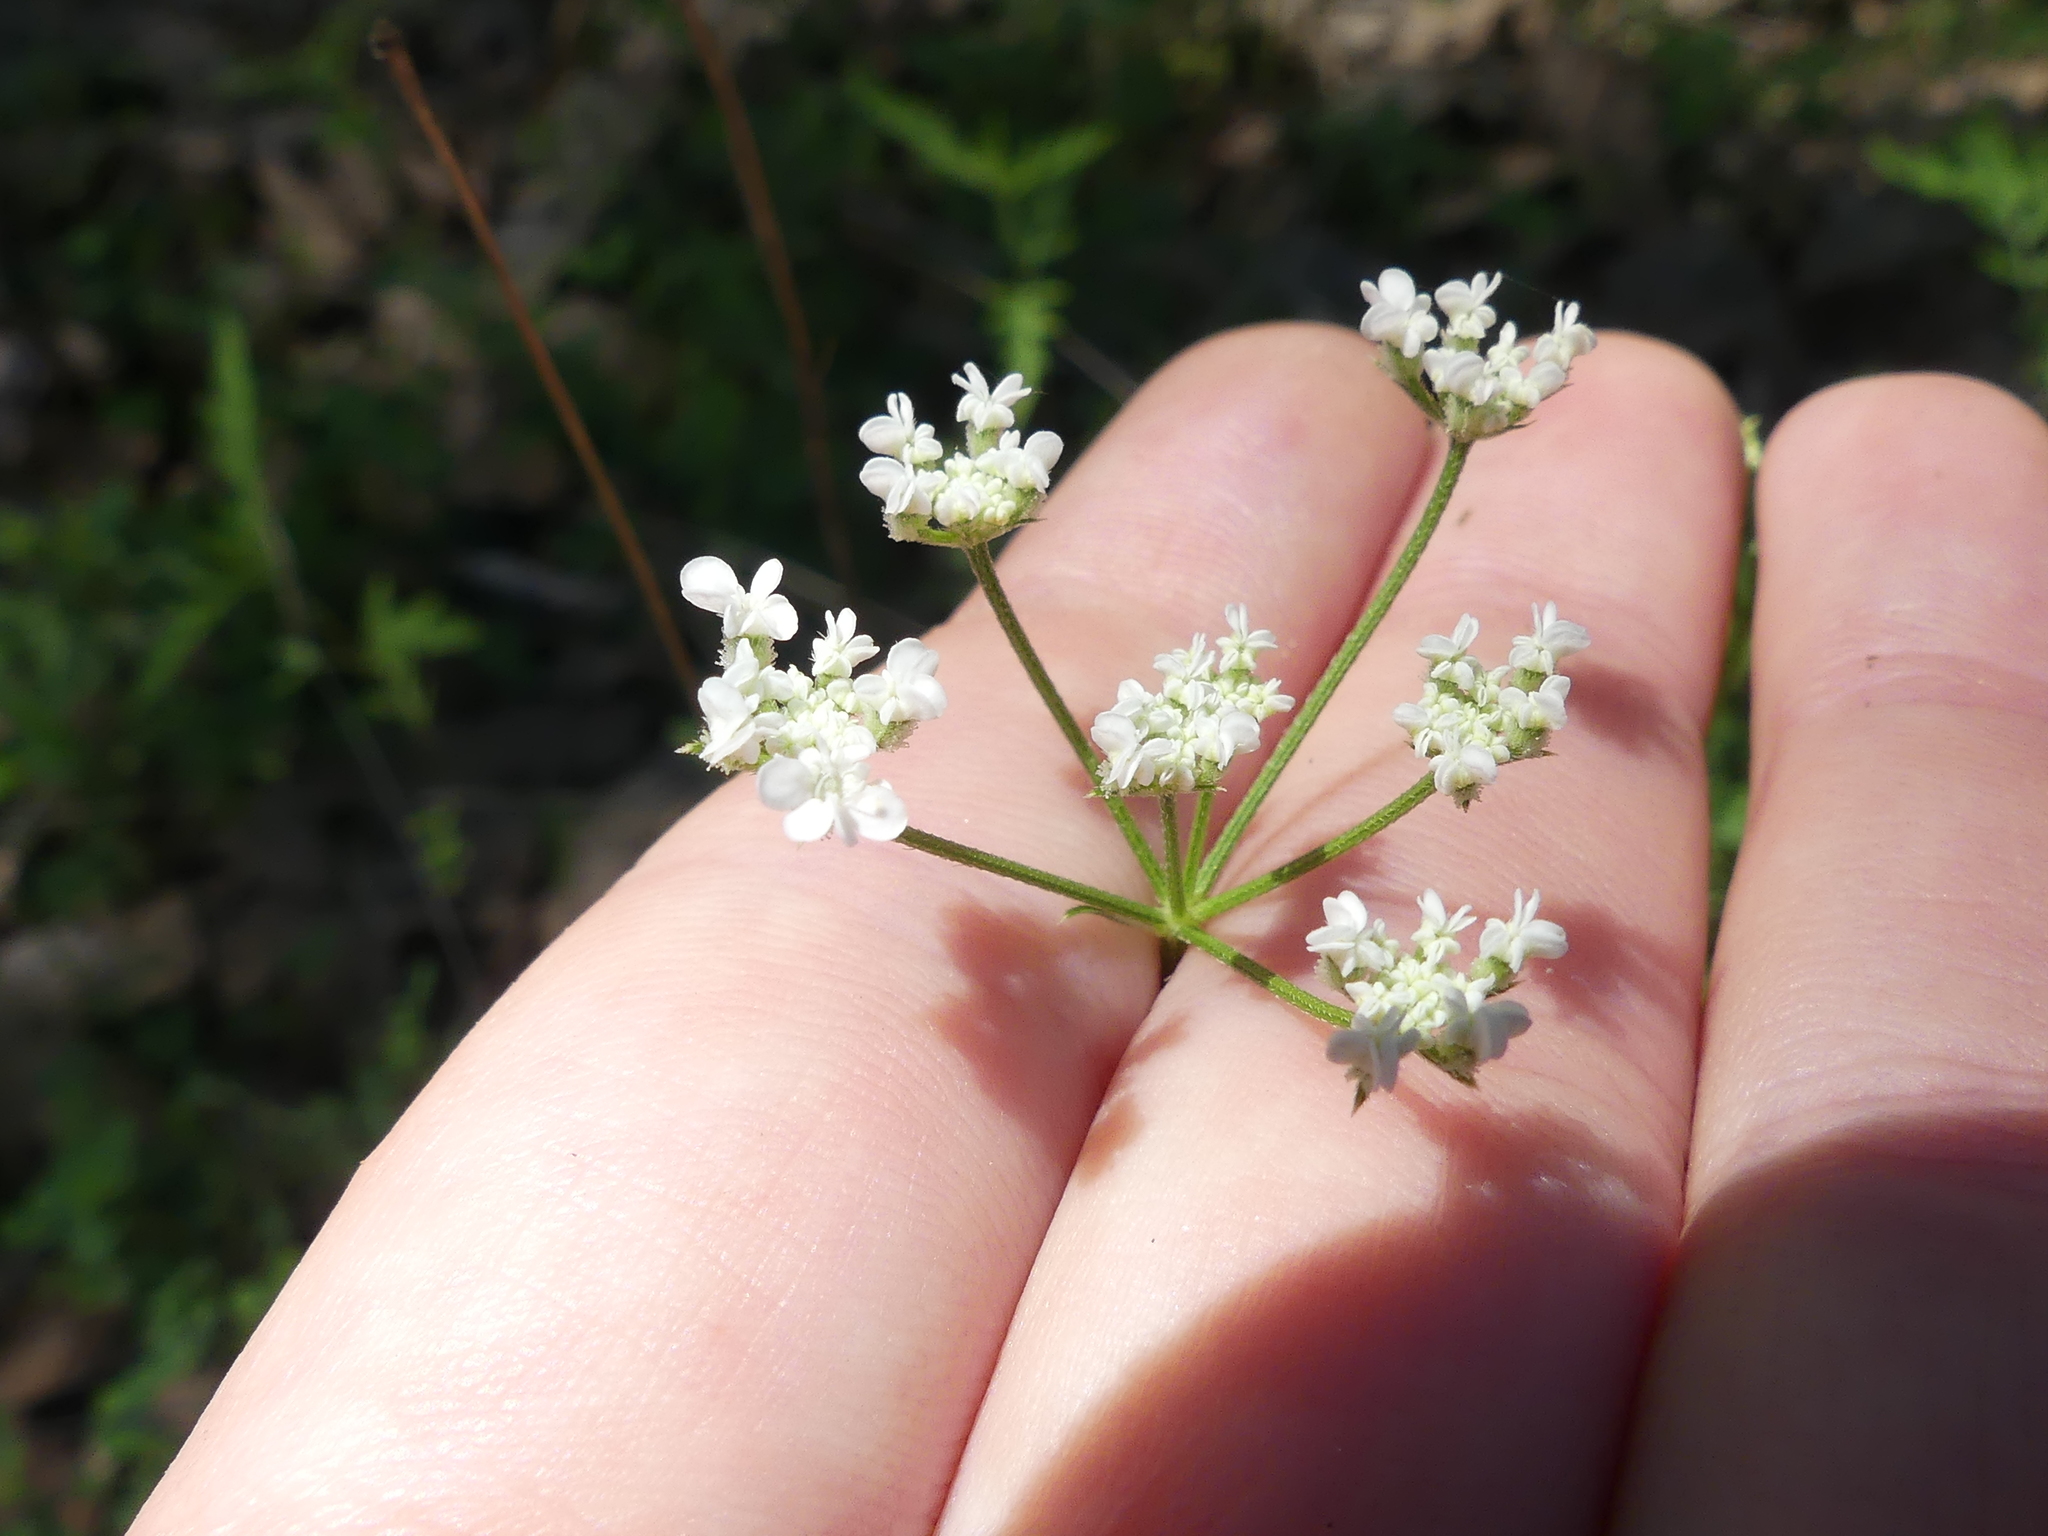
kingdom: Plantae
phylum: Tracheophyta
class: Magnoliopsida
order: Apiales
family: Apiaceae
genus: Torilis
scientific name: Torilis arvensis
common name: Spreading hedge-parsley
